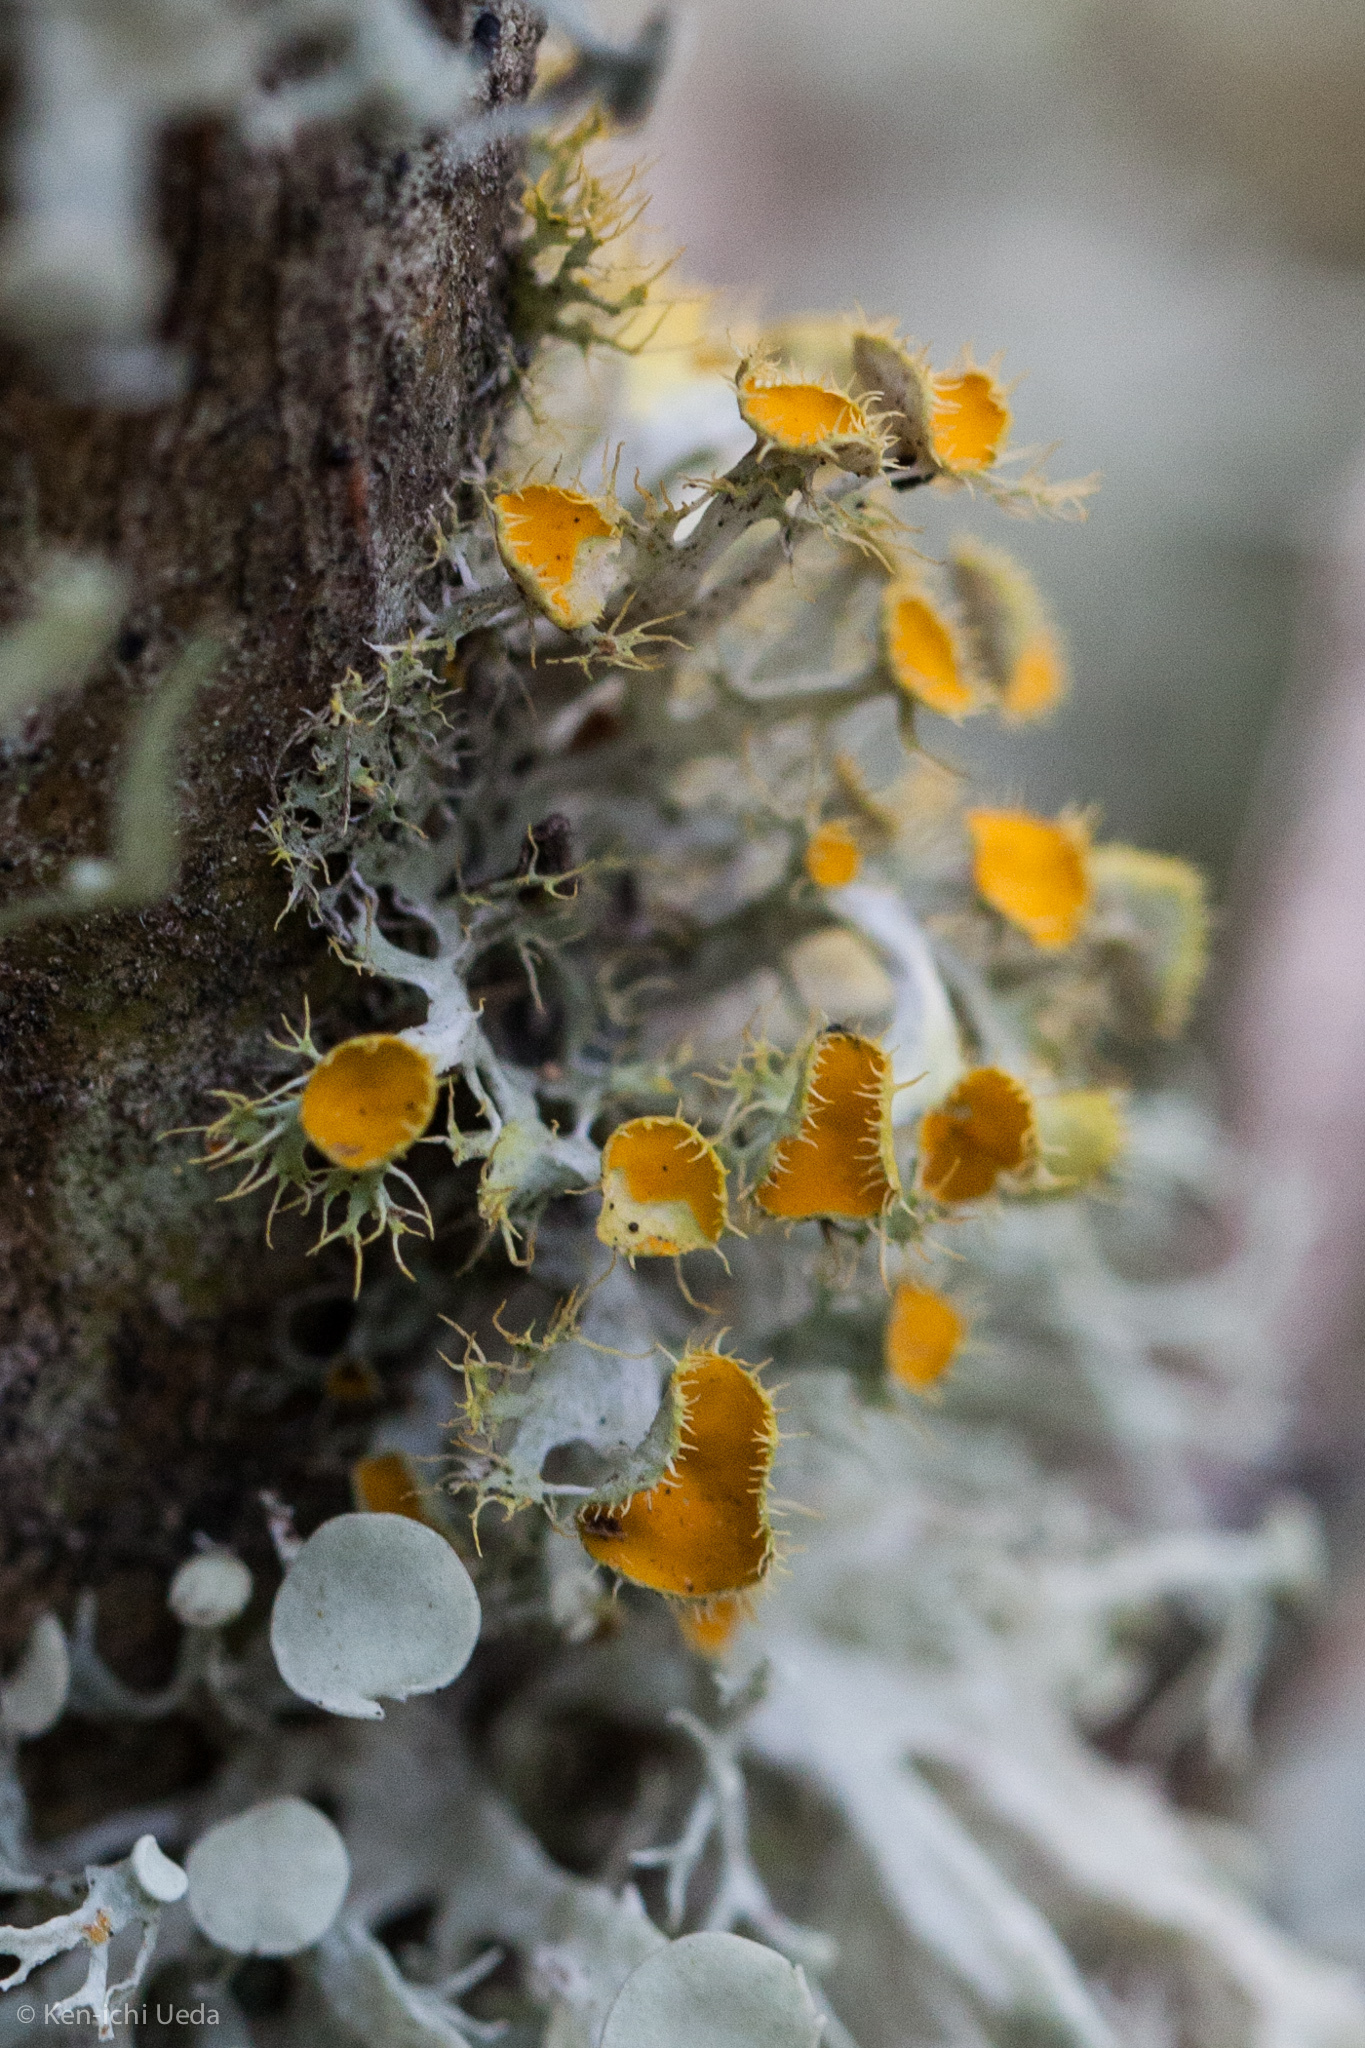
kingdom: Fungi
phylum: Ascomycota
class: Lecanoromycetes
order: Teloschistales
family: Teloschistaceae
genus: Niorma
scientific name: Niorma chrysophthalma
